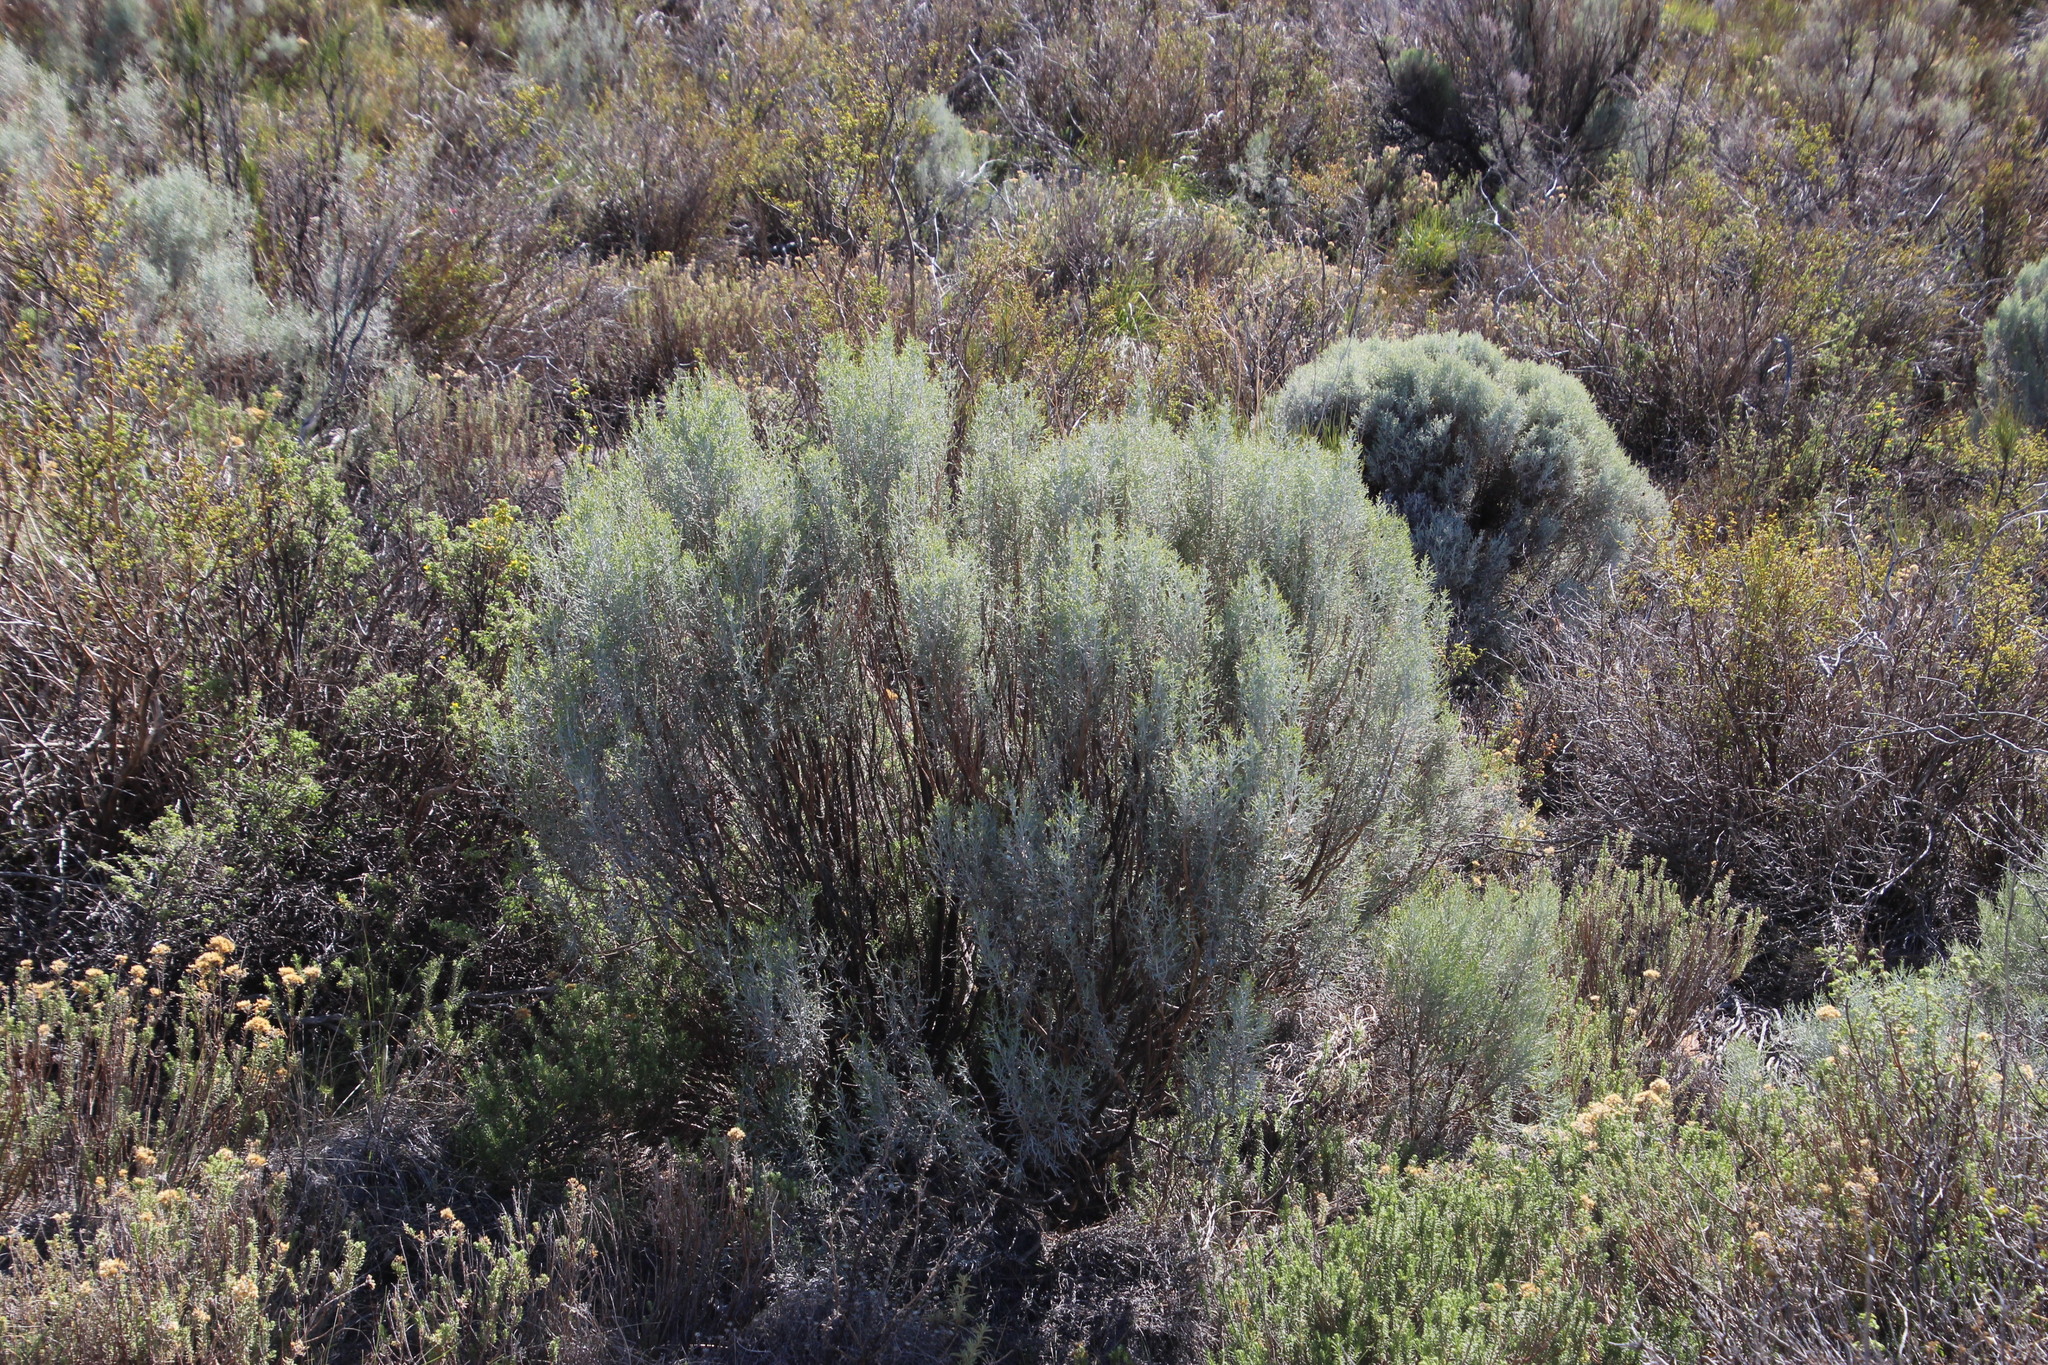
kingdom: Plantae
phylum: Tracheophyta
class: Magnoliopsida
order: Asterales
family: Asteraceae
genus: Dicerothamnus
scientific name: Dicerothamnus rhinocerotis
